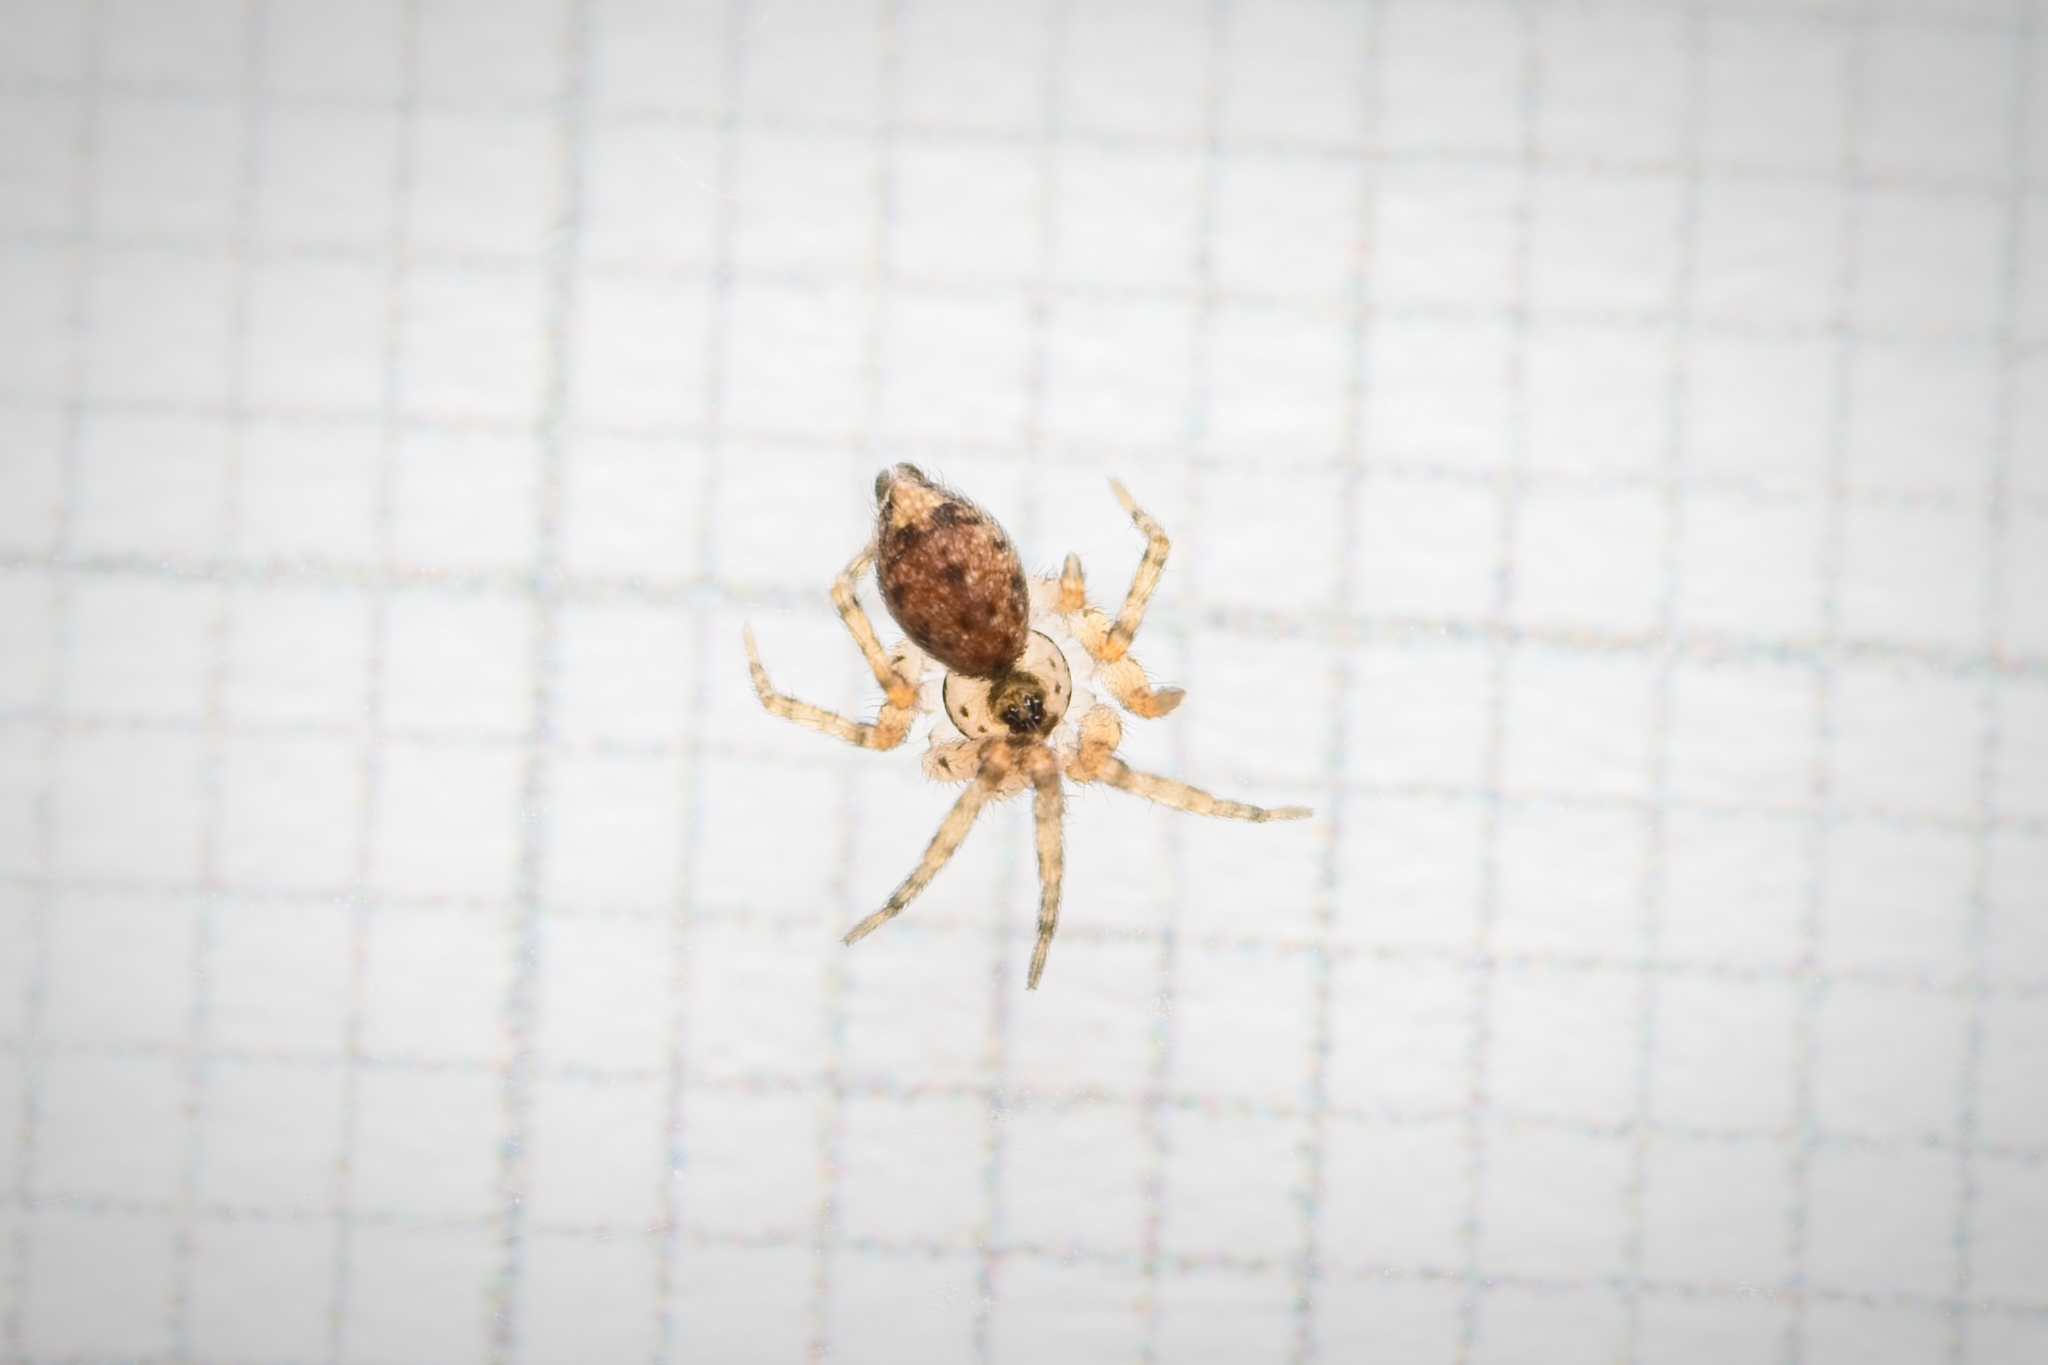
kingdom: Animalia
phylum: Arthropoda
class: Arachnida
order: Araneae
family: Oecobiidae
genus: Oecobius
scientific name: Oecobius navus
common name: Flatmesh weaver
